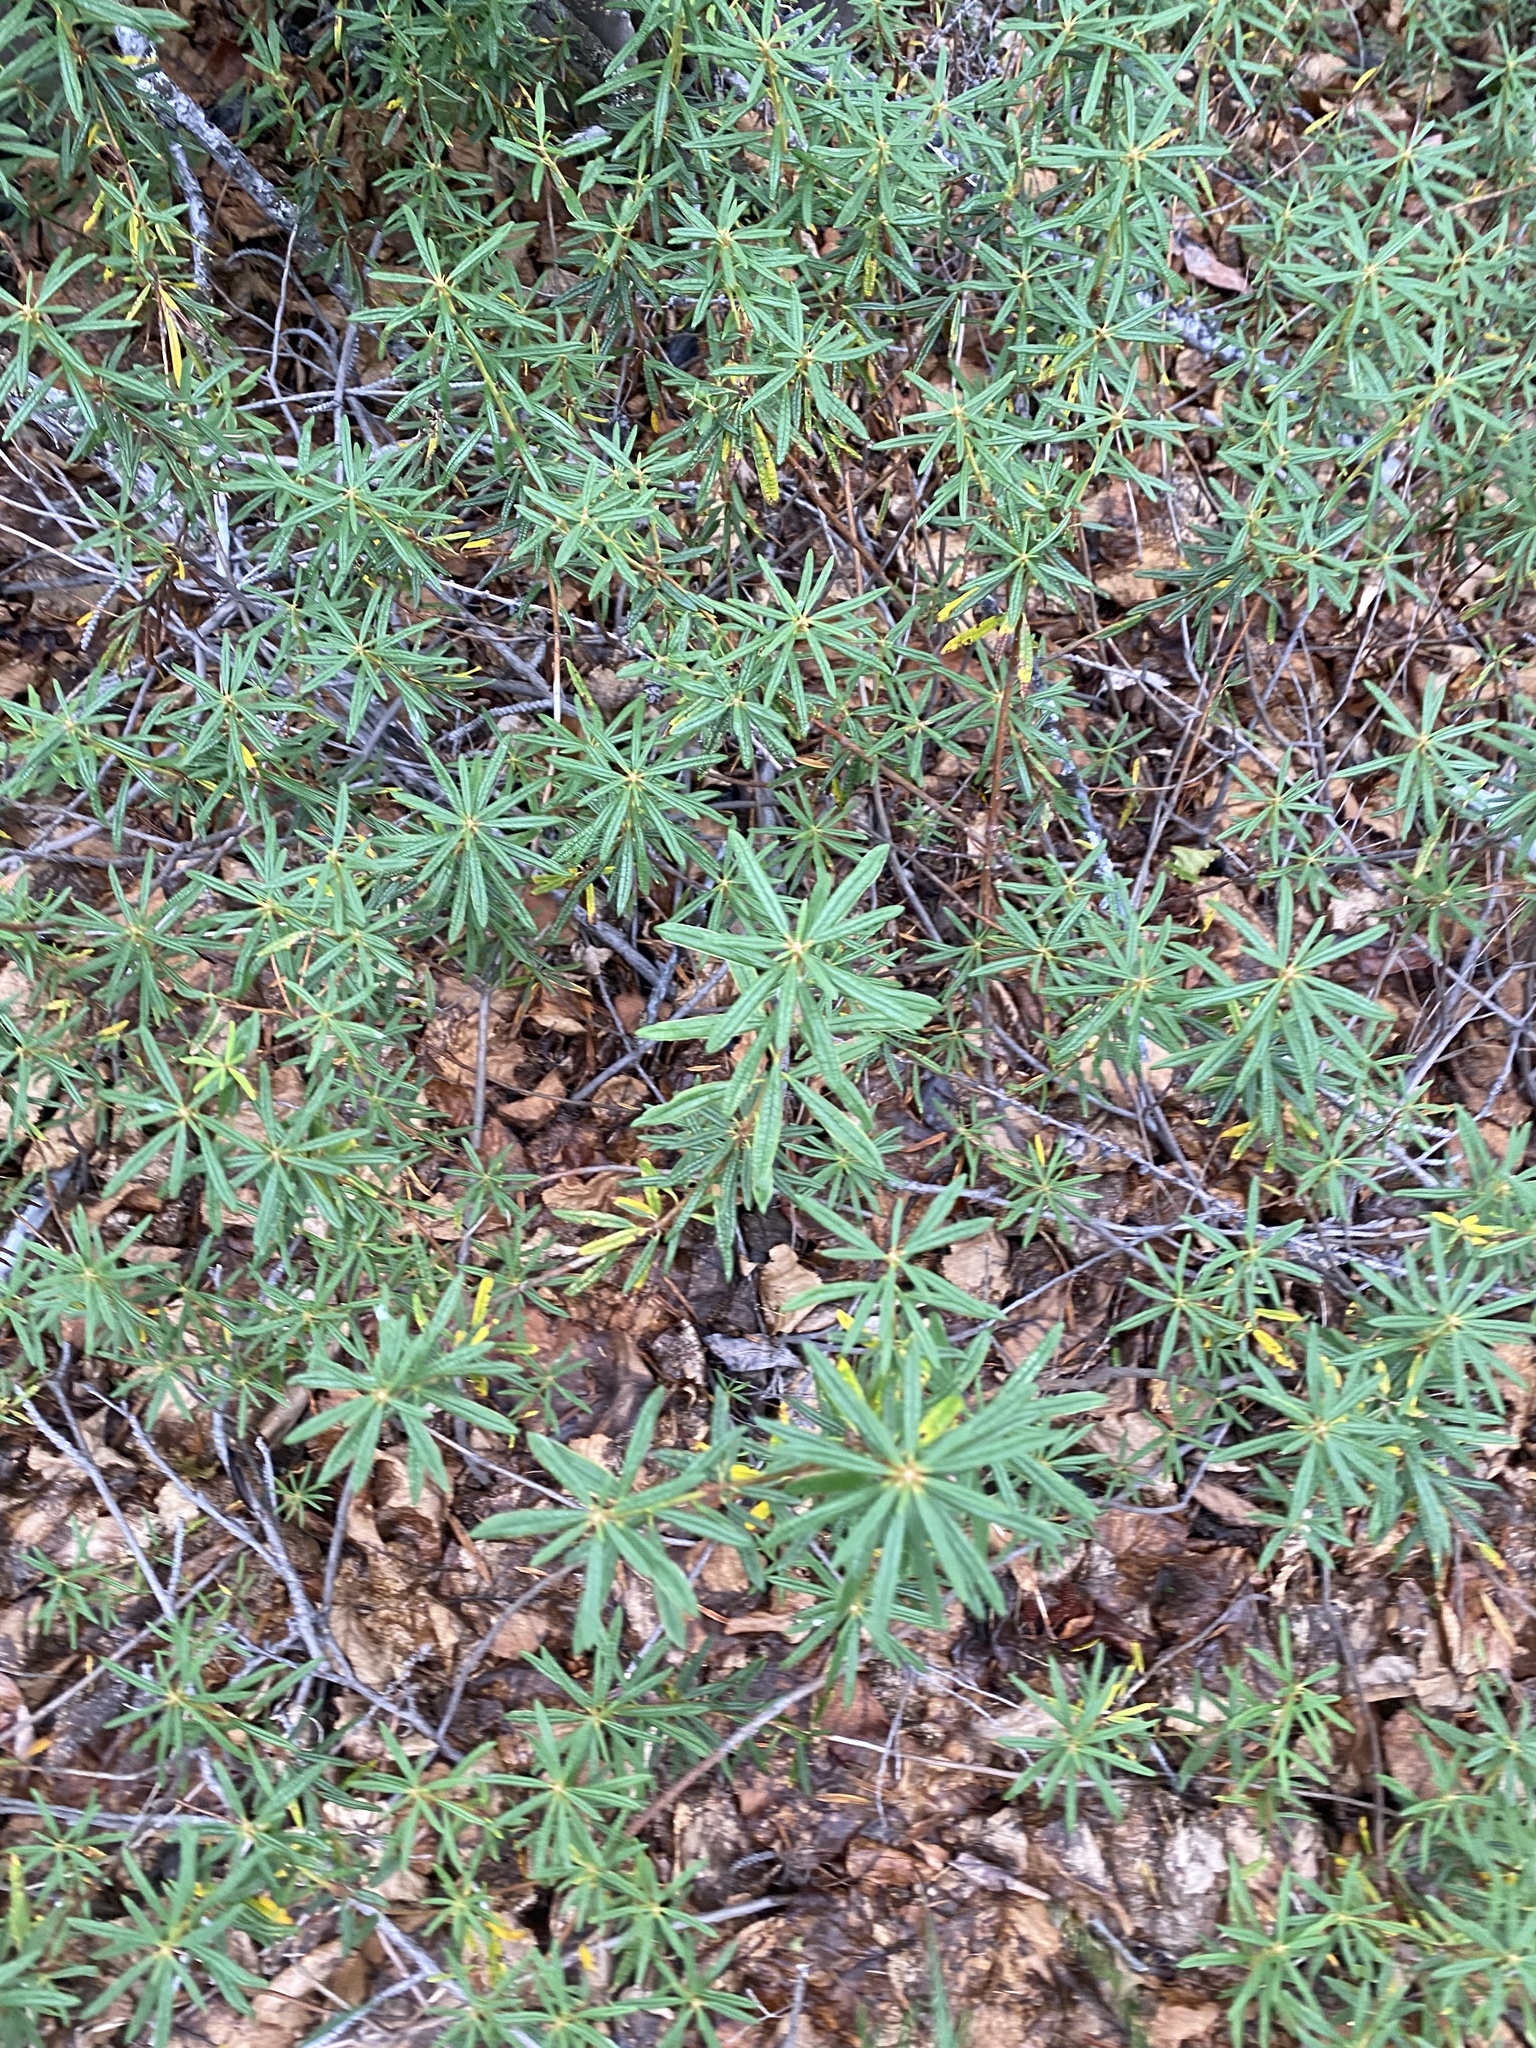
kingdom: Plantae
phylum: Tracheophyta
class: Magnoliopsida
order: Ericales
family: Ericaceae
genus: Rhododendron
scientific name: Rhododendron tomentosum
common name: Marsh labrador tea
